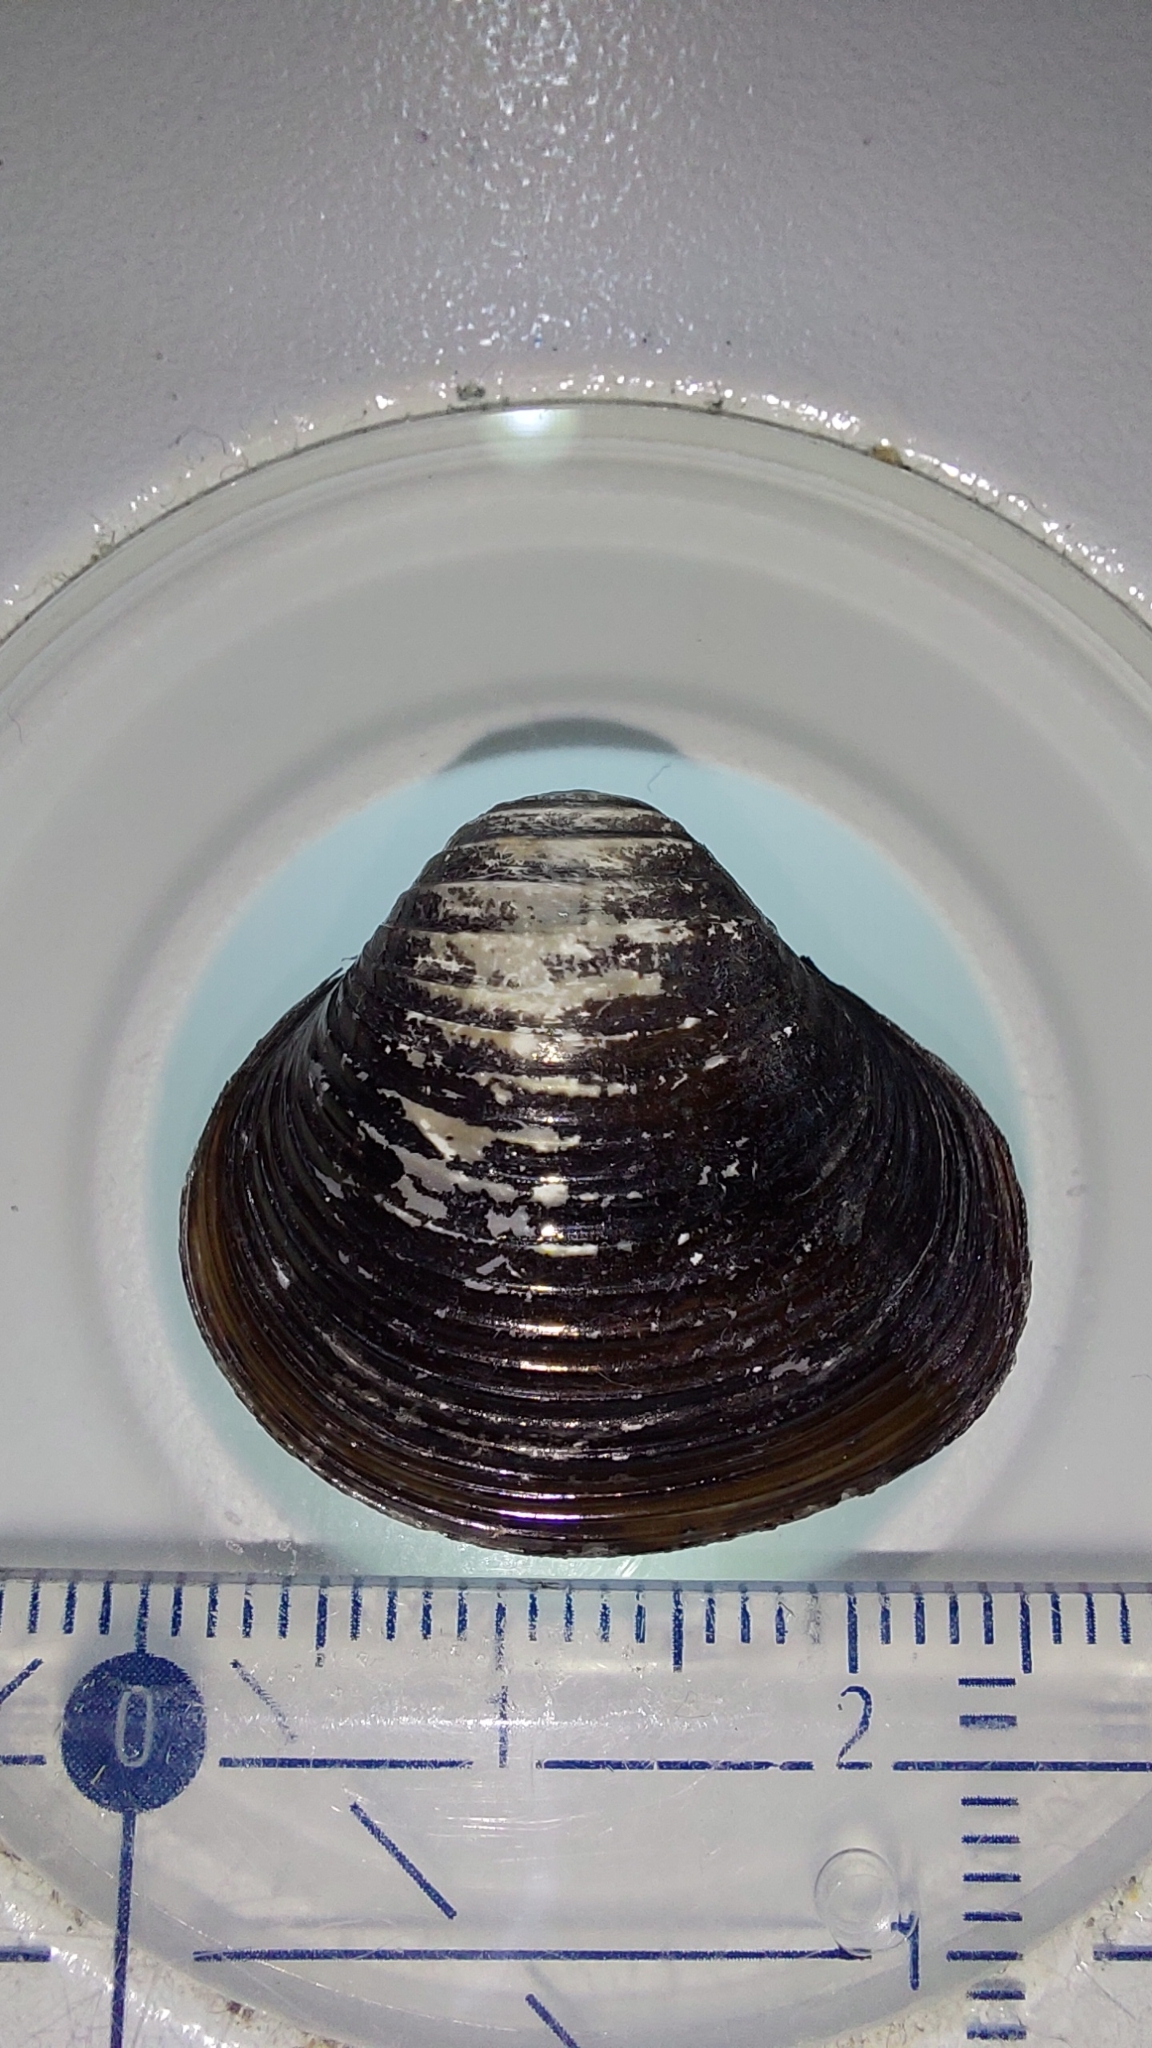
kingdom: Animalia
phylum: Mollusca
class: Bivalvia
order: Venerida
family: Cyrenidae
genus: Corbicula
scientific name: Corbicula fluminea
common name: Asian clam
